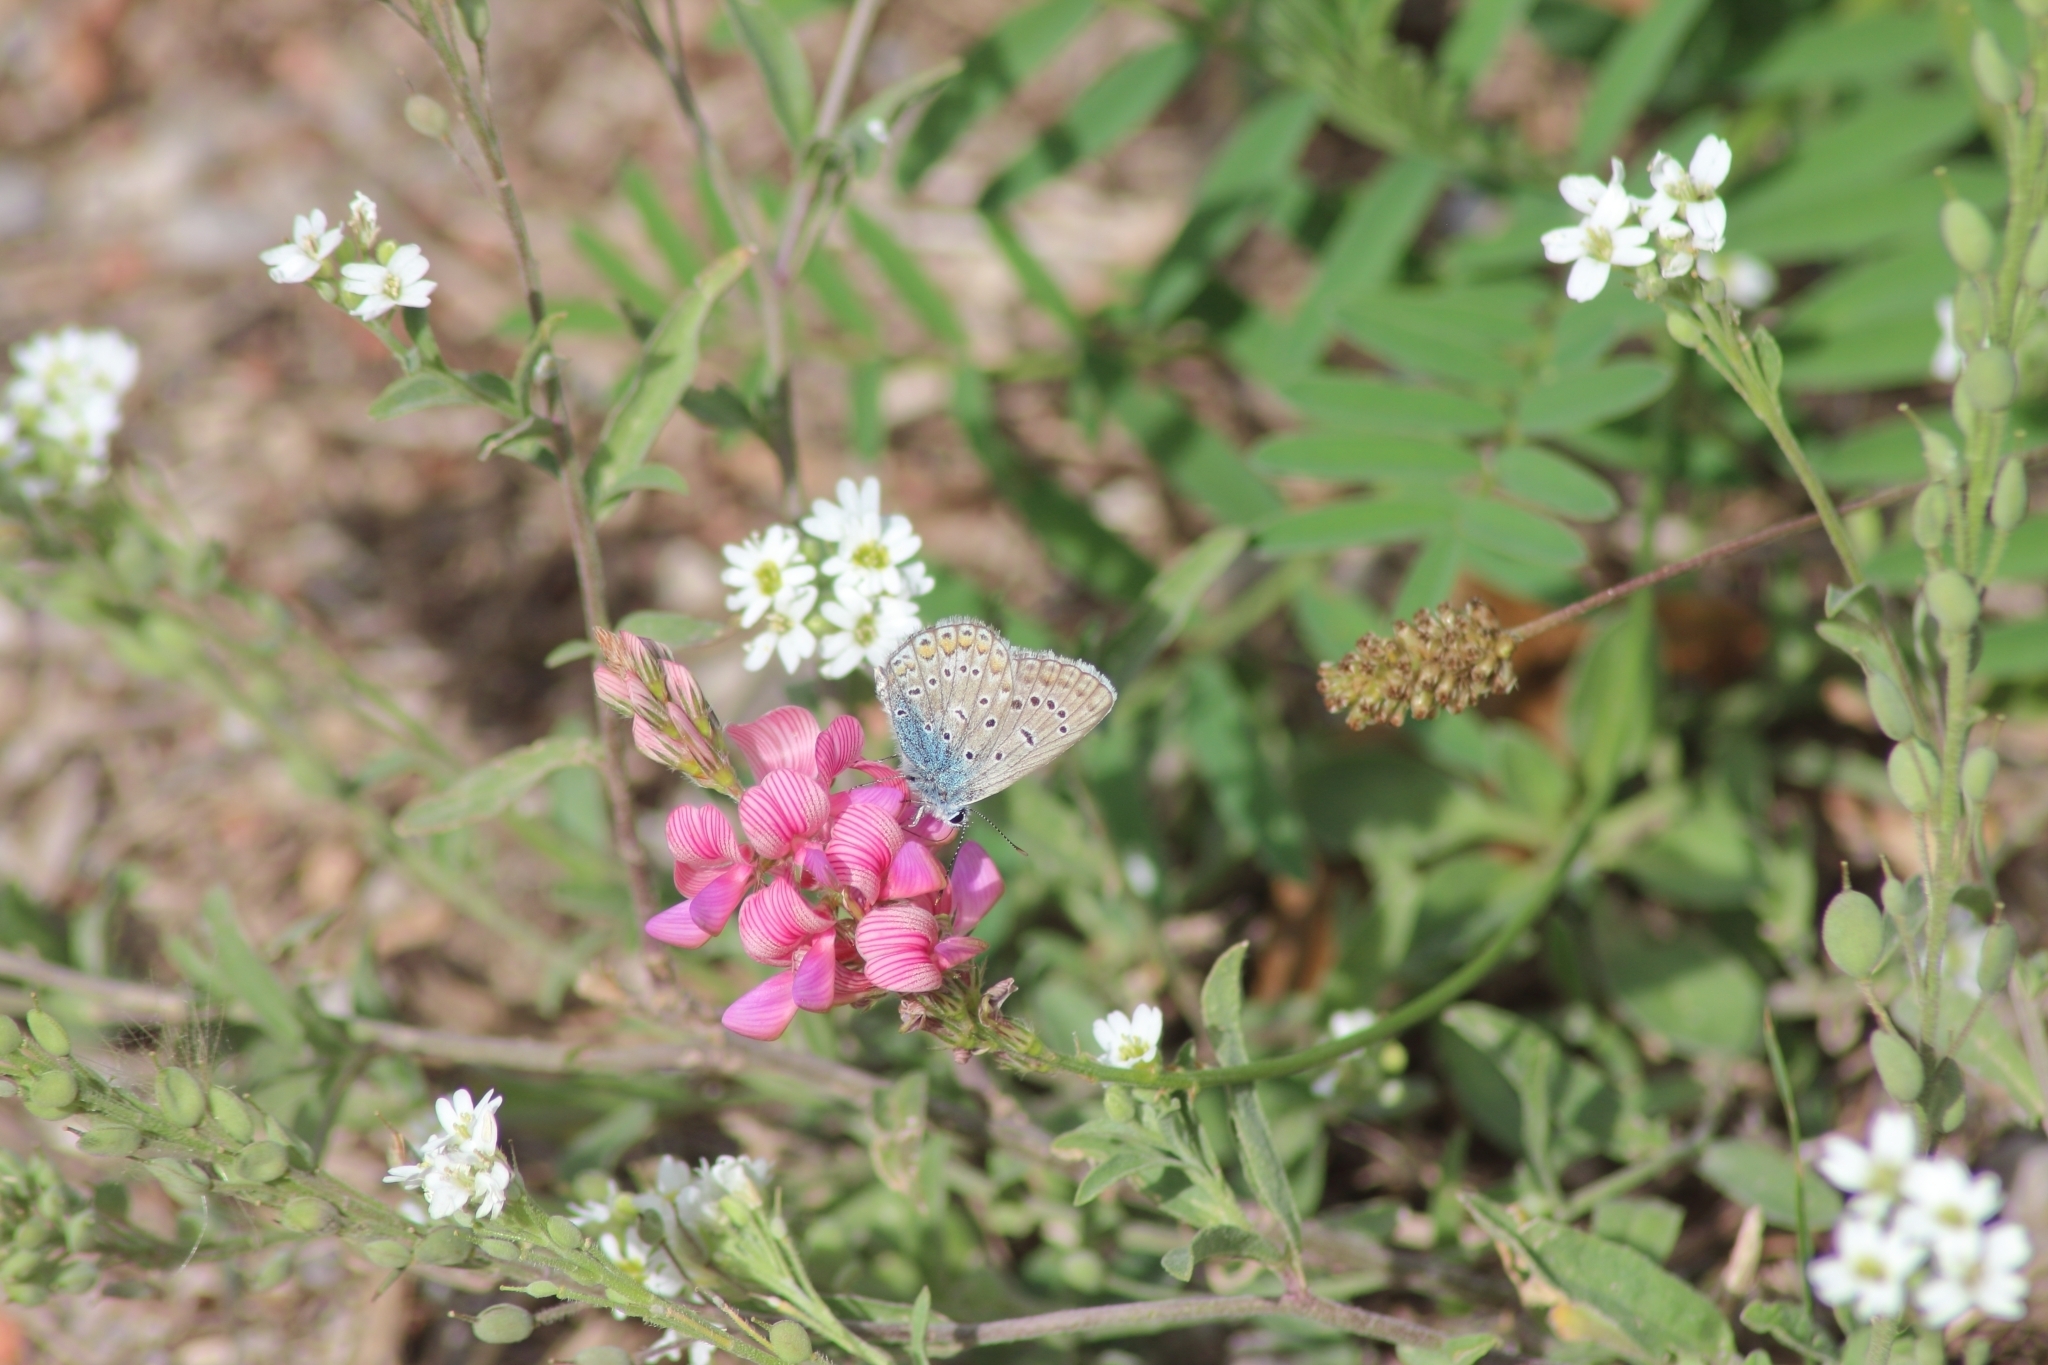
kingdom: Animalia
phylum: Arthropoda
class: Insecta
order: Lepidoptera
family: Lycaenidae
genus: Polyommatus
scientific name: Polyommatus icarus
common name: Common blue
